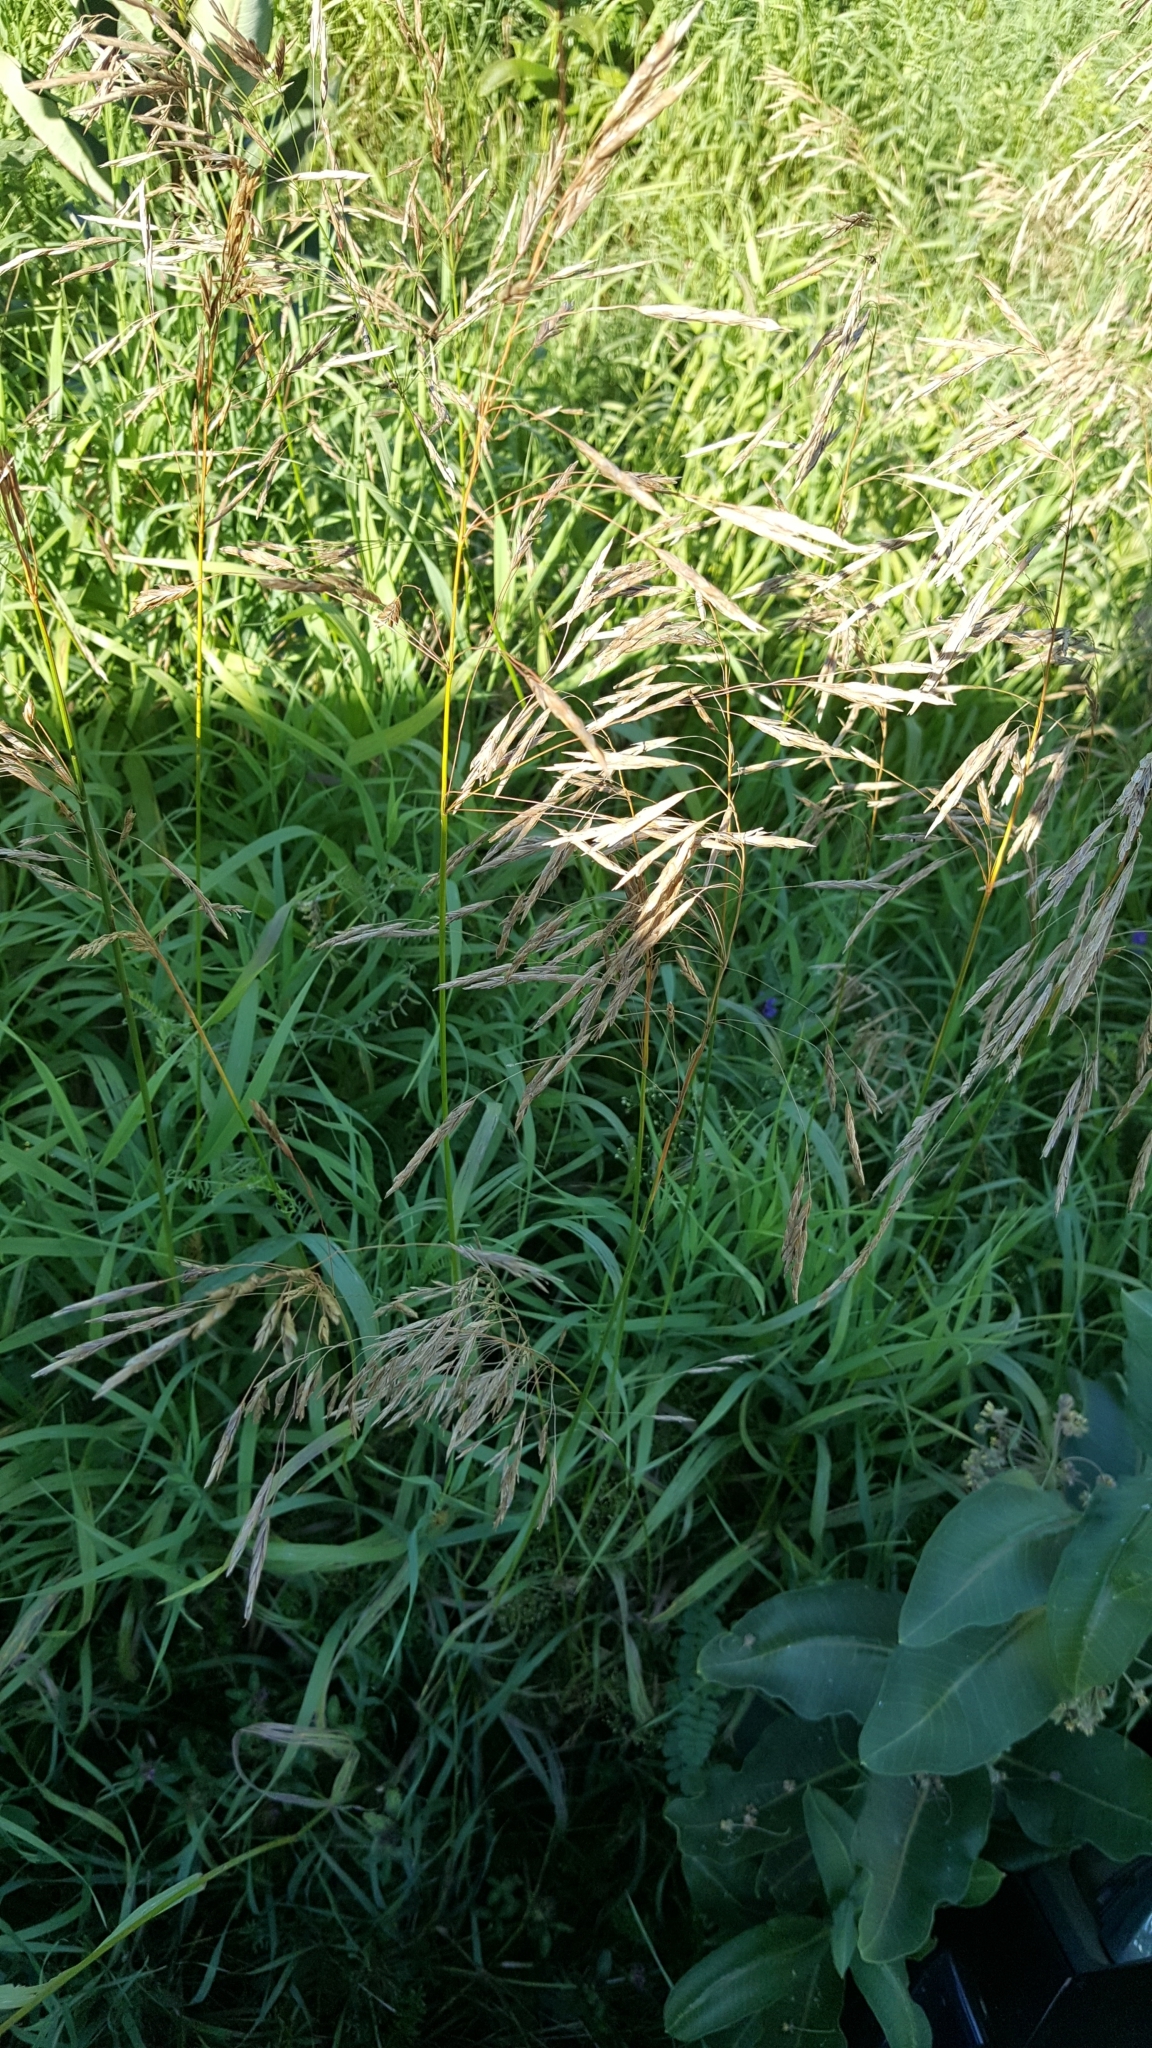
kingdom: Plantae
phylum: Tracheophyta
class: Liliopsida
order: Poales
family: Poaceae
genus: Bromus
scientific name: Bromus inermis
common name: Smooth brome
